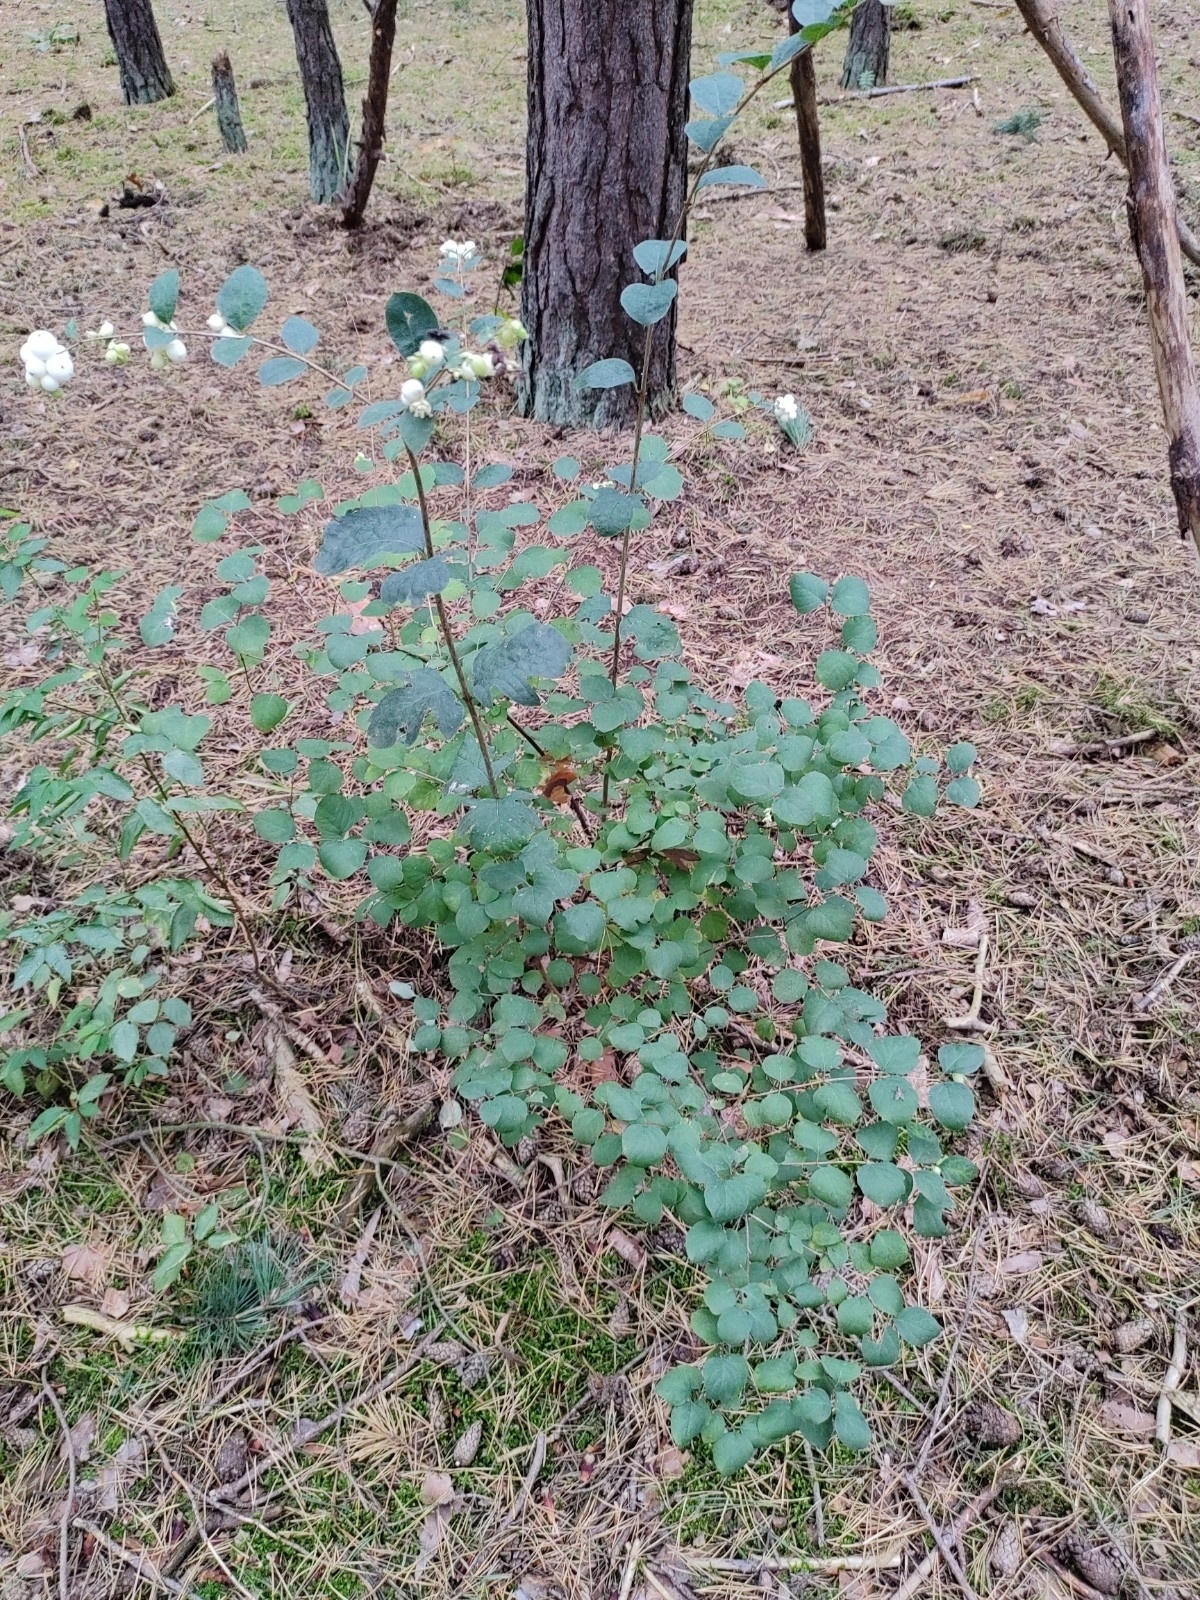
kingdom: Plantae
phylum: Tracheophyta
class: Magnoliopsida
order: Dipsacales
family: Caprifoliaceae
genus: Symphoricarpos
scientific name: Symphoricarpos albus
